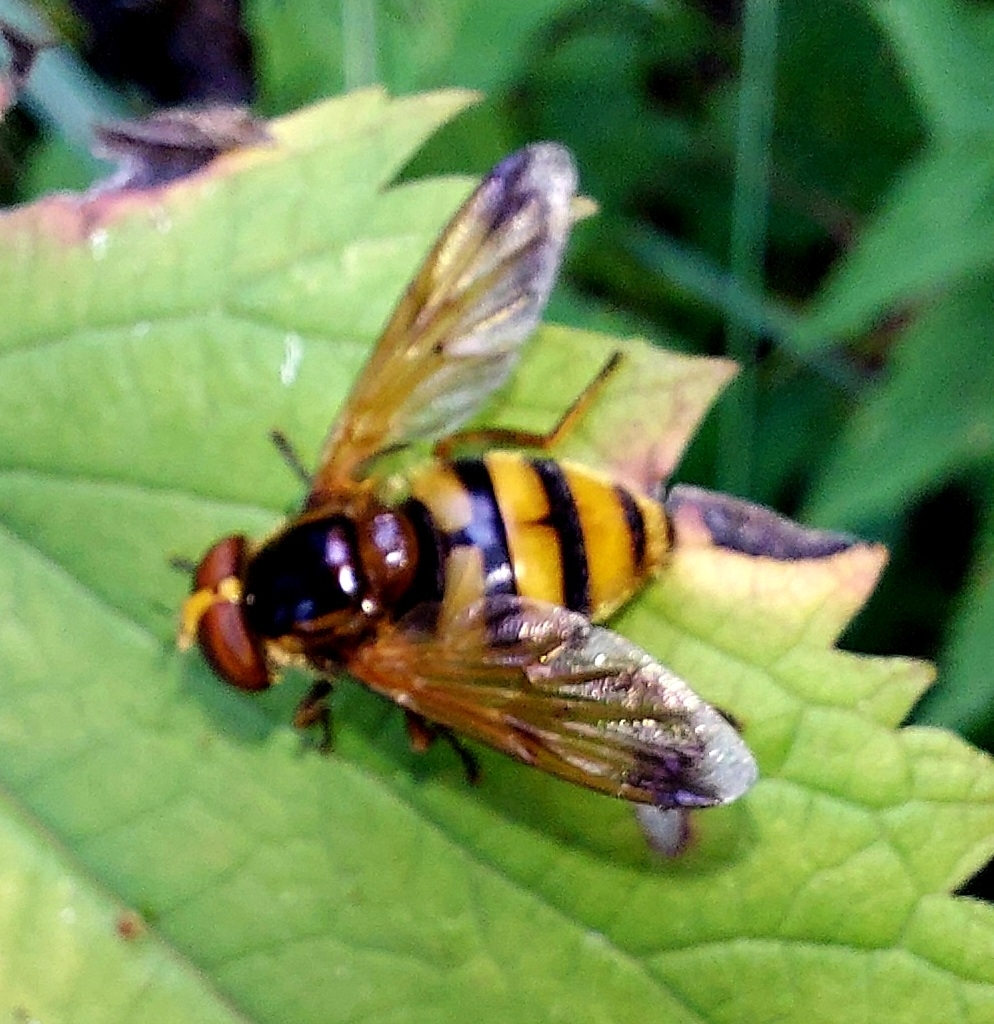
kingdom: Animalia
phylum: Arthropoda
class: Insecta
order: Diptera
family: Syrphidae
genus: Volucella
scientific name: Volucella inanis
